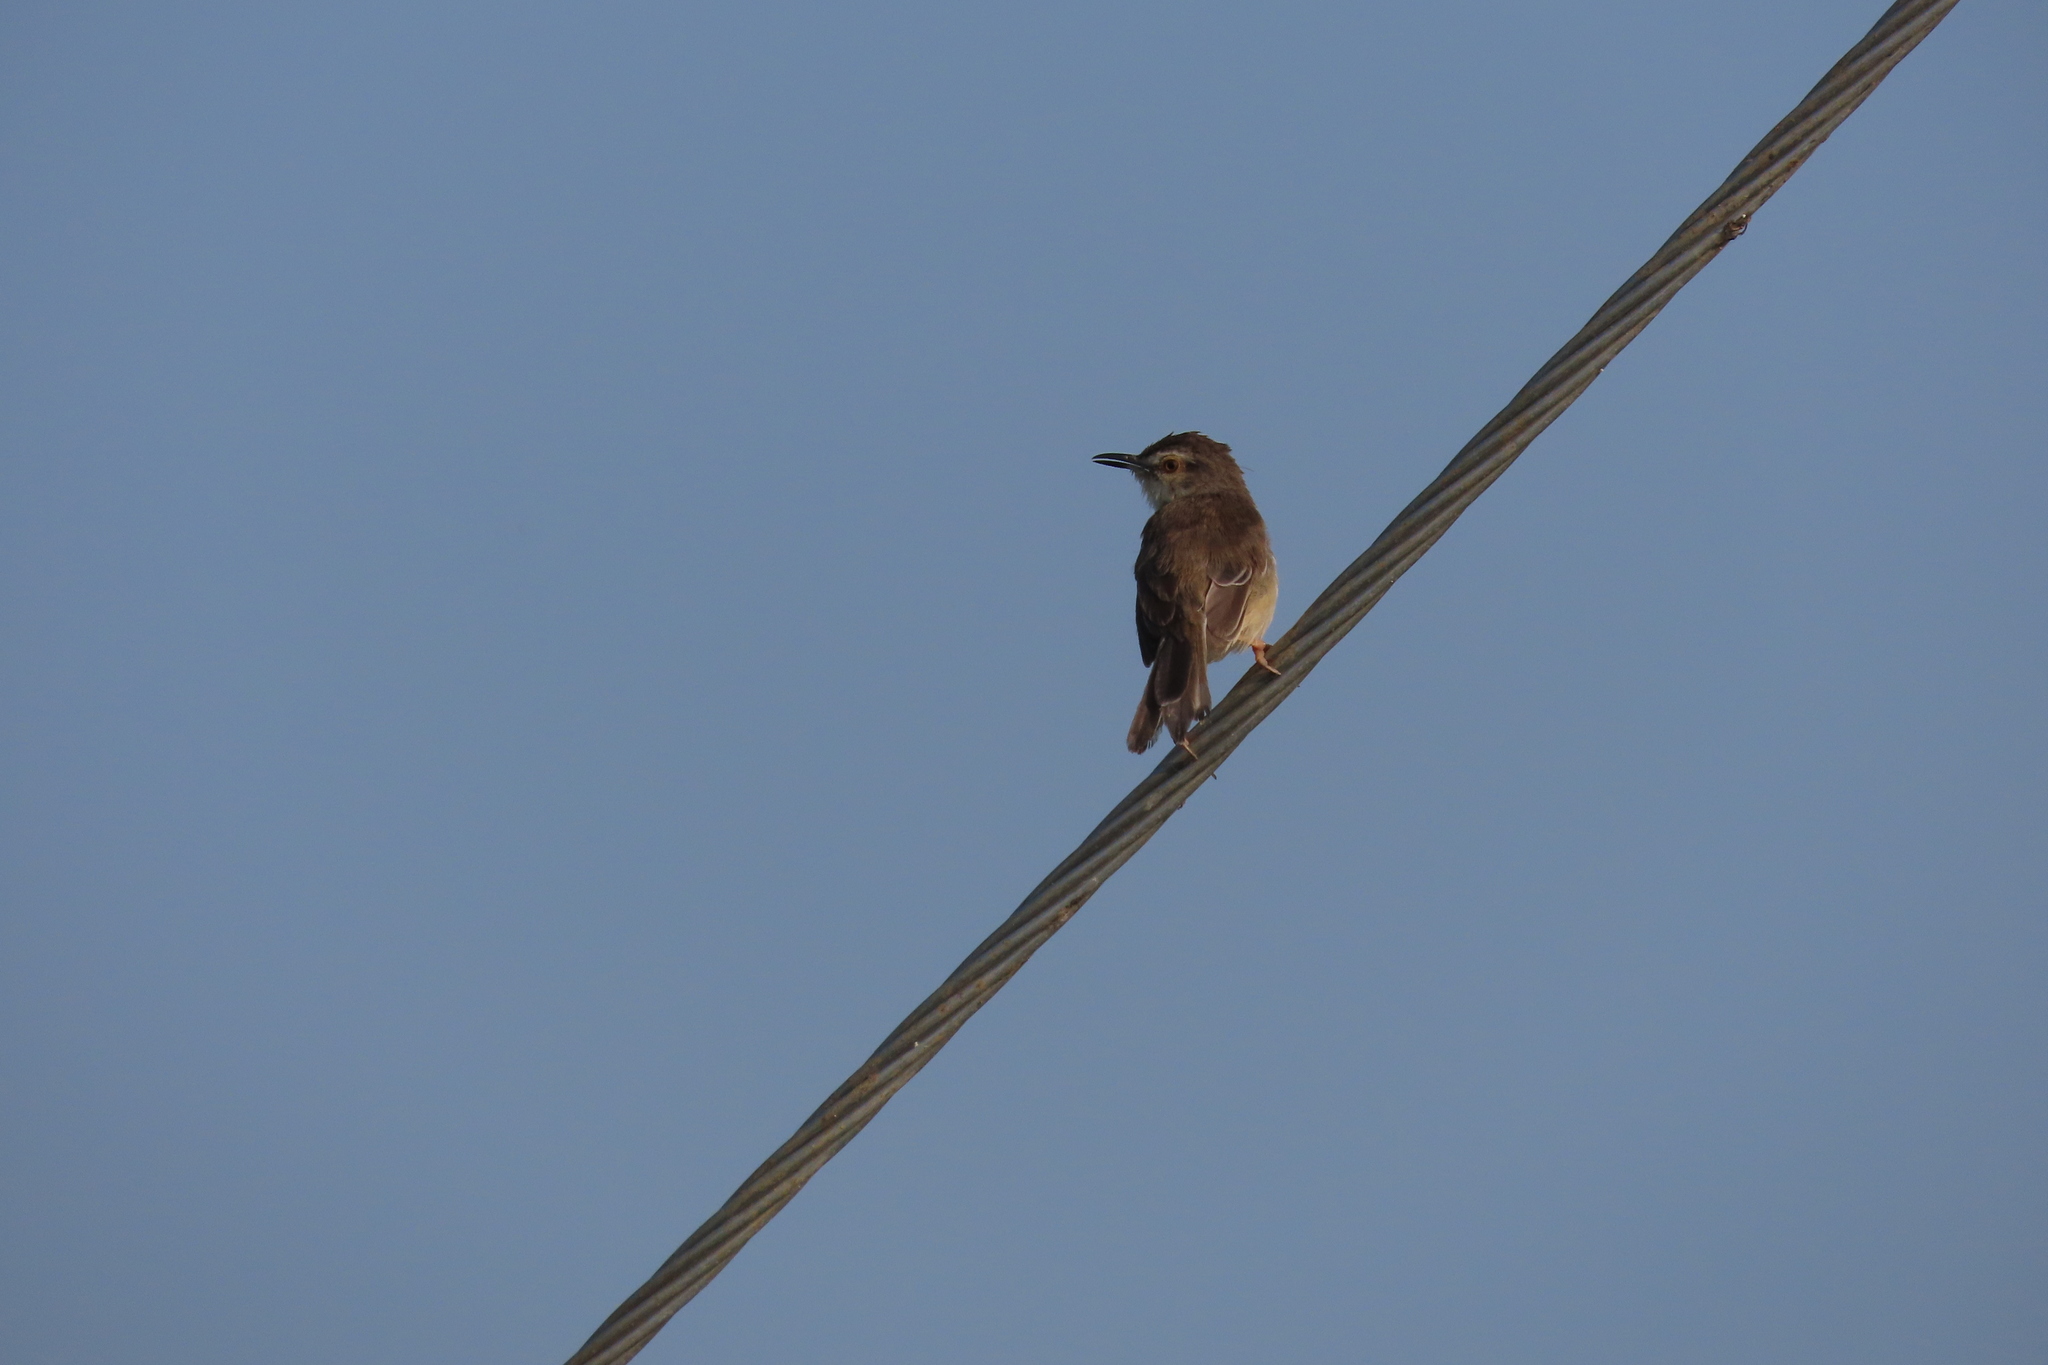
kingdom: Animalia
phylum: Chordata
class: Aves
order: Passeriformes
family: Cisticolidae
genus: Prinia
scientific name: Prinia inornata
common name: Plain prinia
